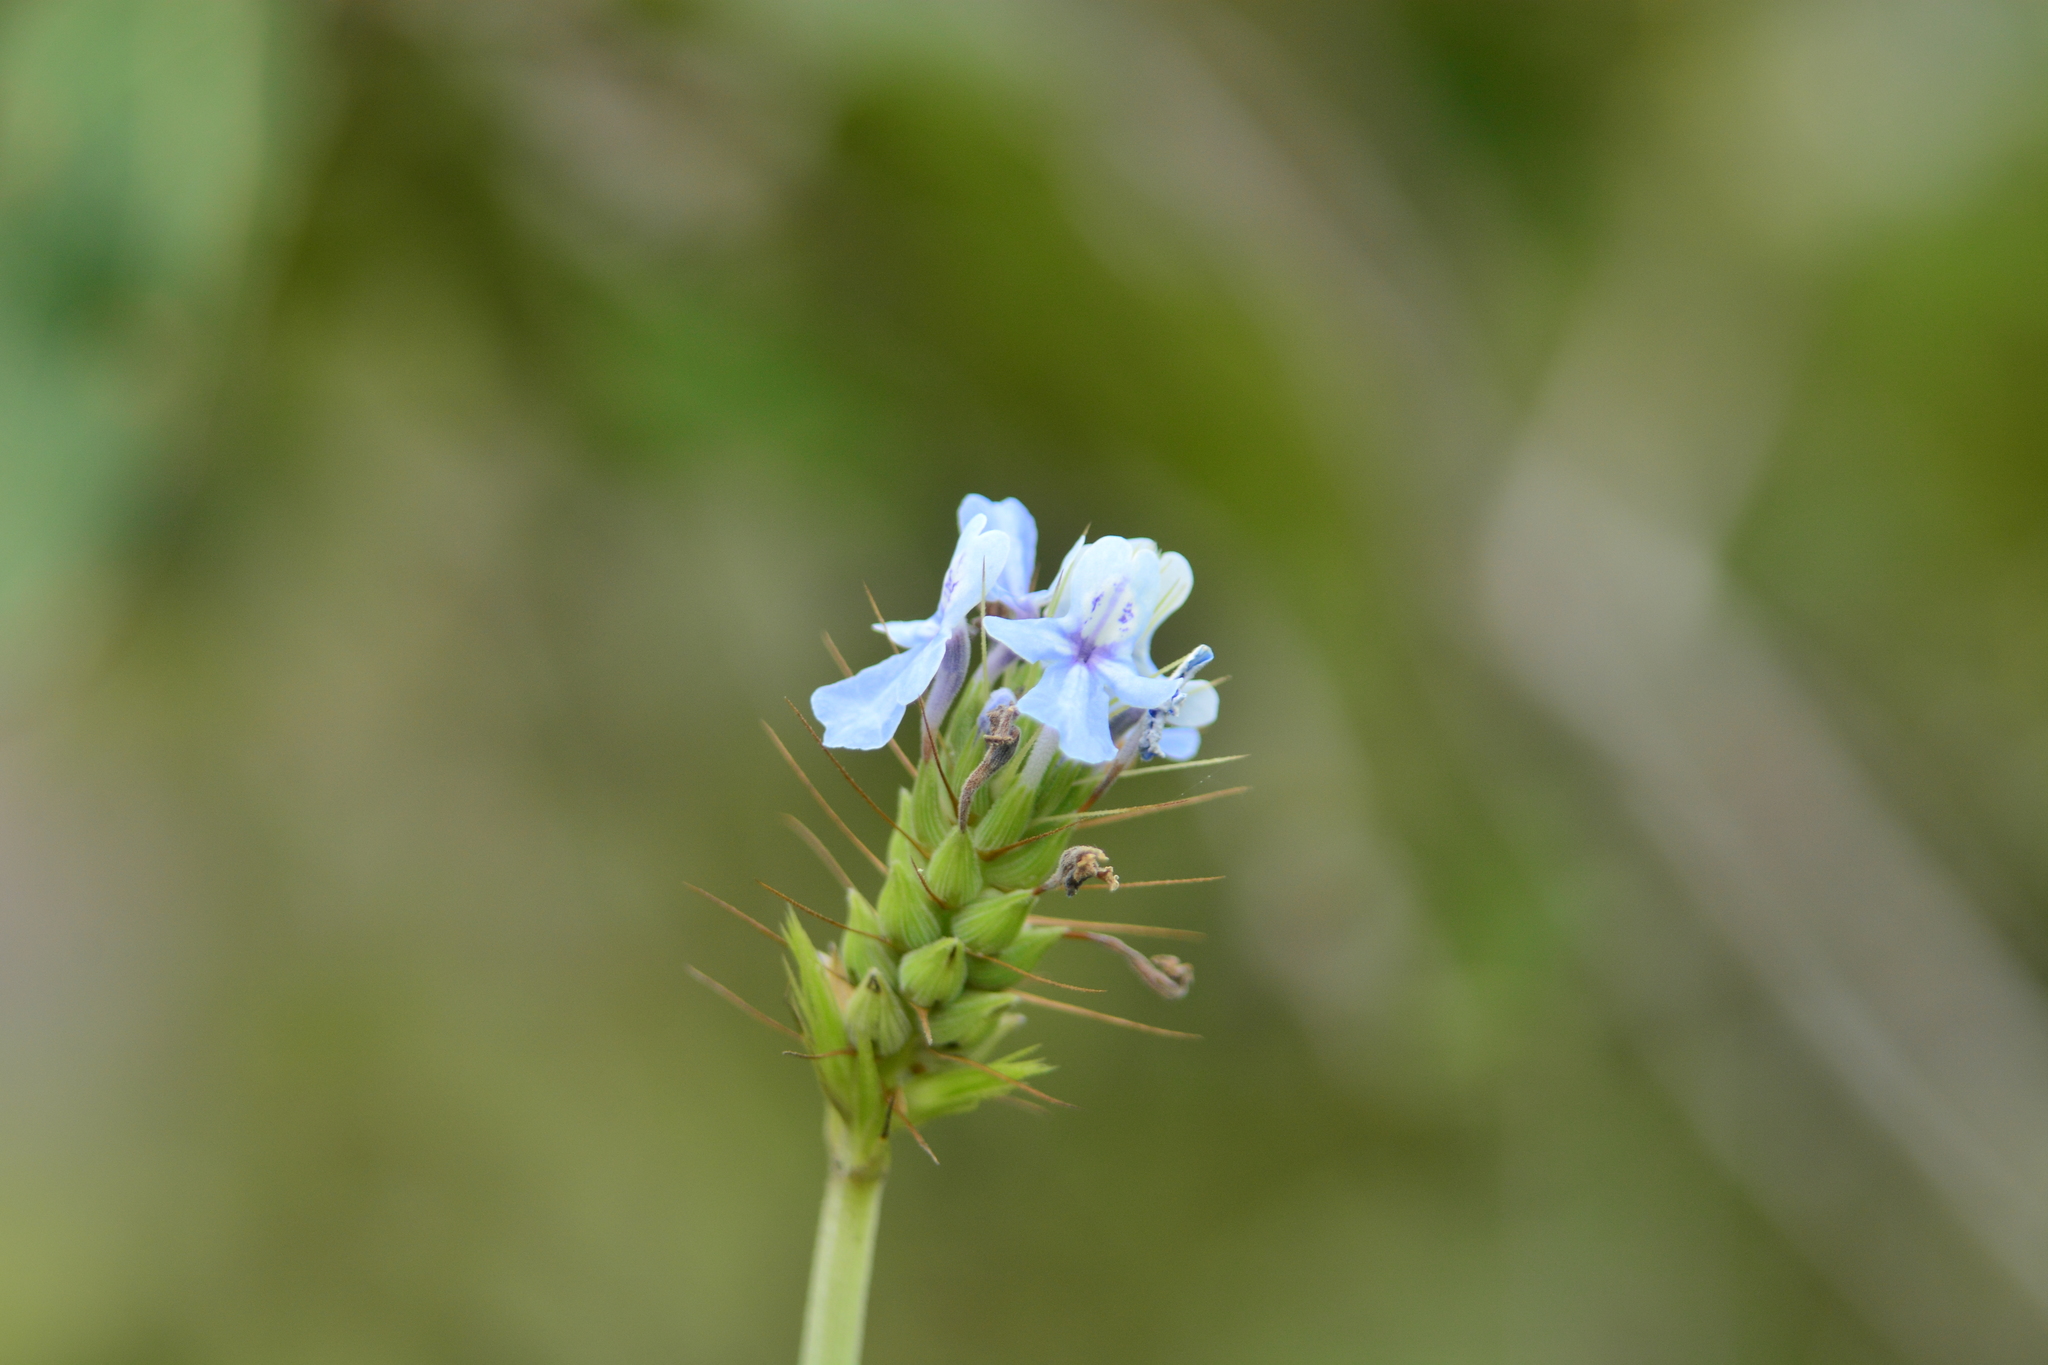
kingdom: Plantae
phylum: Tracheophyta
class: Magnoliopsida
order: Lamiales
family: Lamiaceae
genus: Lavandula
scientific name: Lavandula bipinnata
